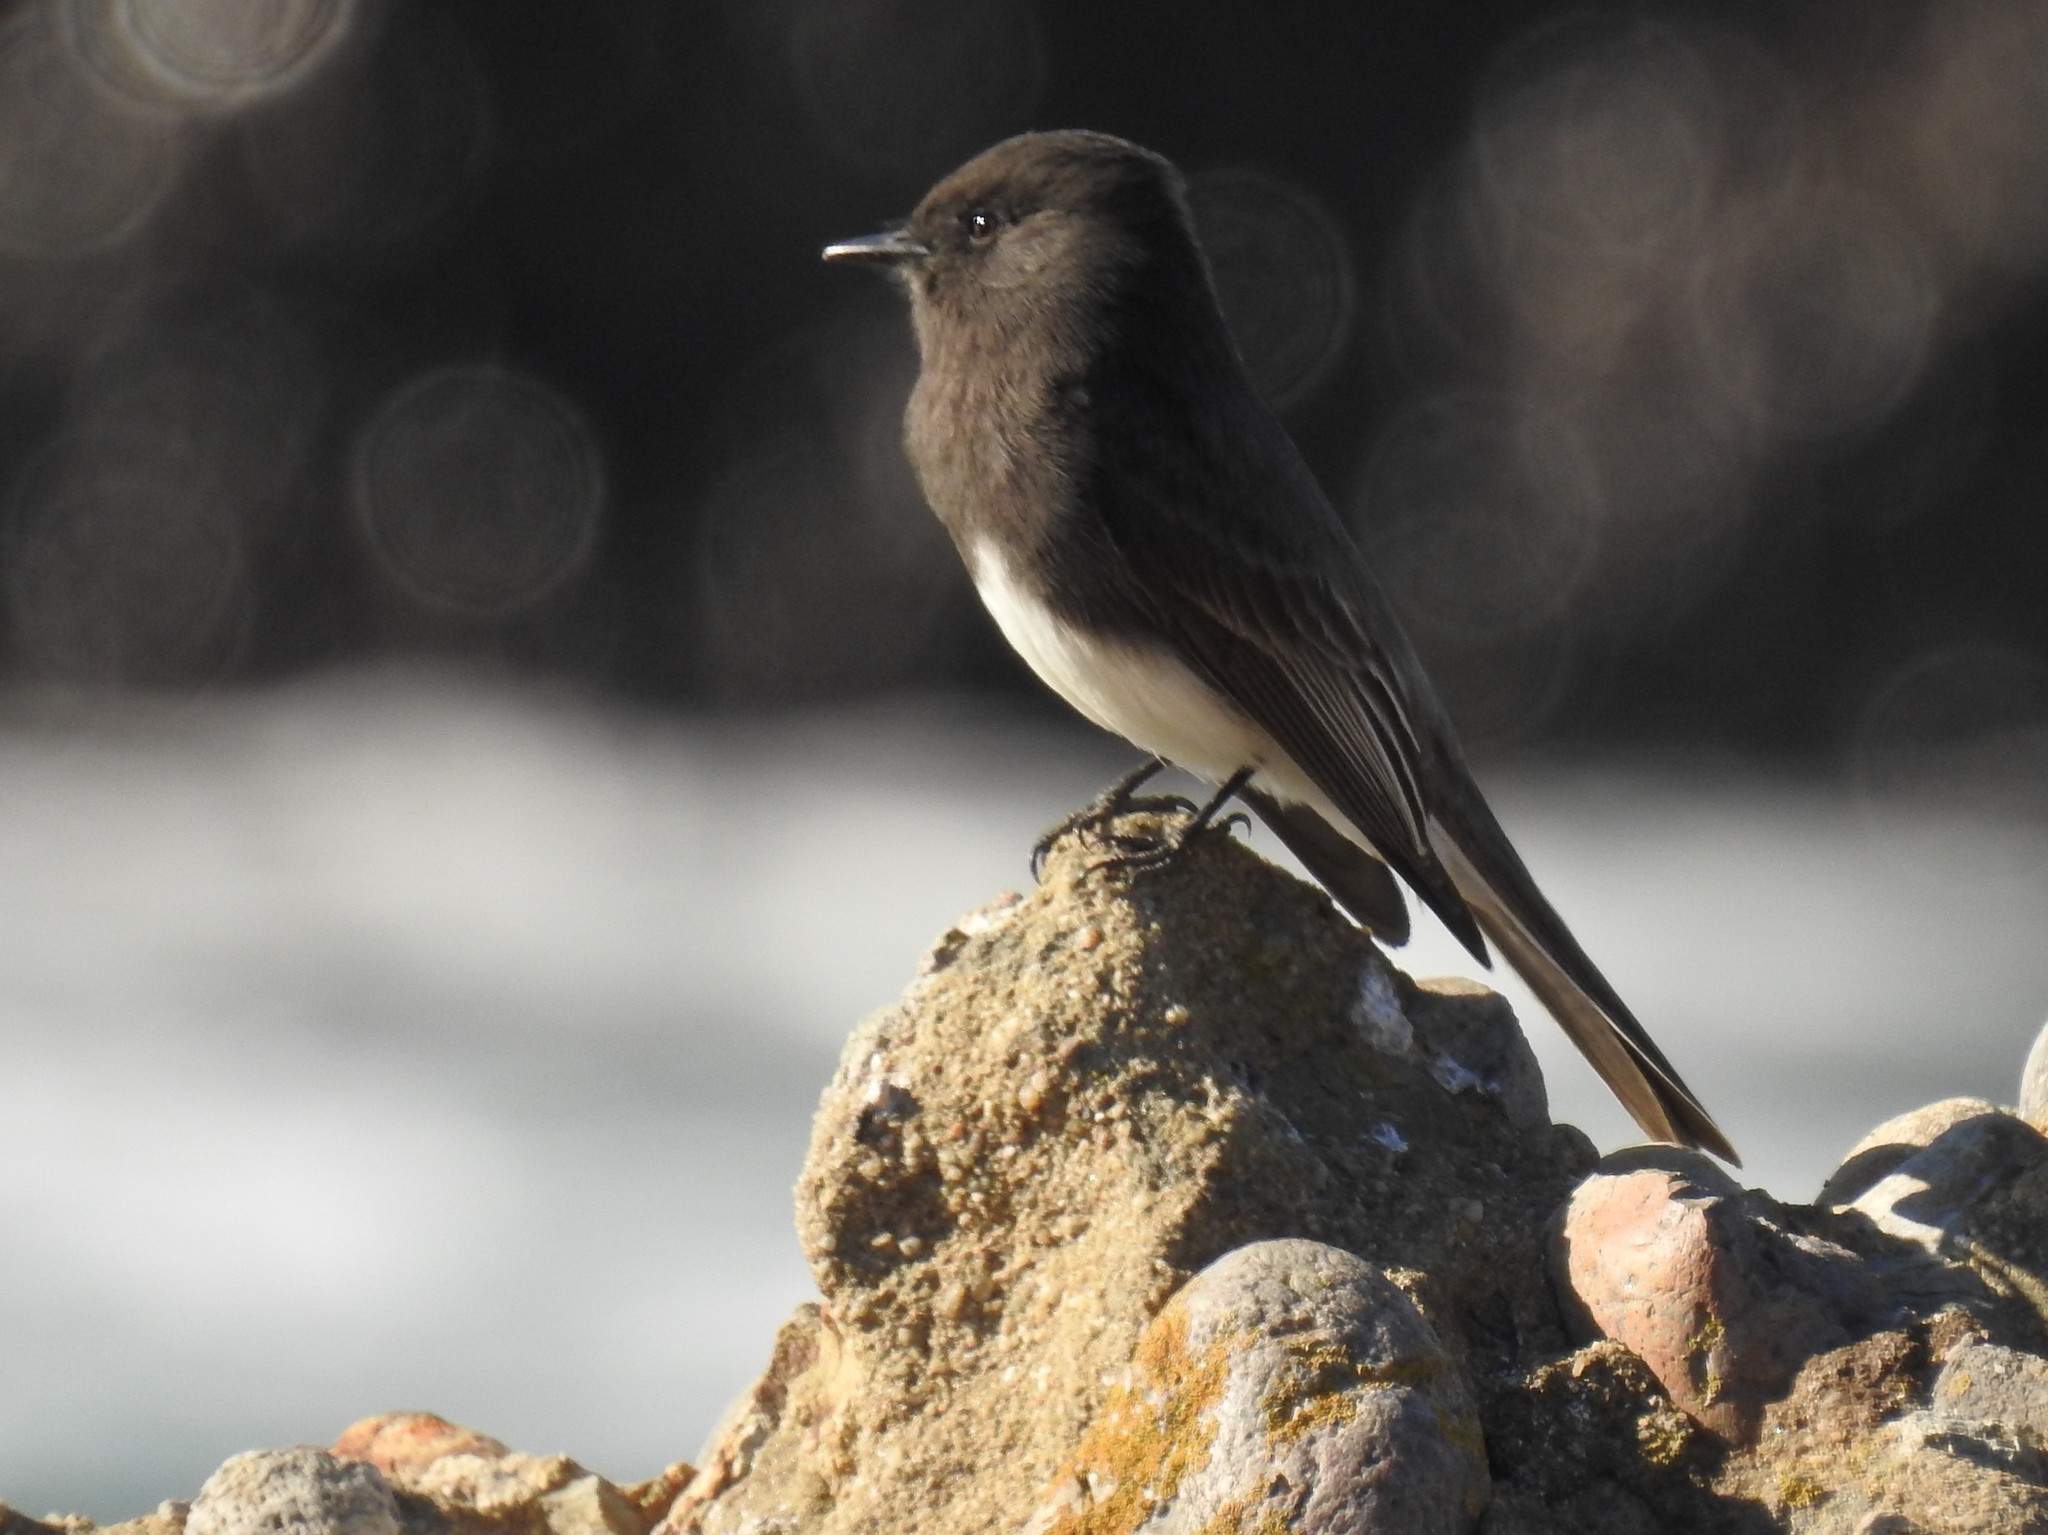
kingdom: Animalia
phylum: Chordata
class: Aves
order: Passeriformes
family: Tyrannidae
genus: Sayornis
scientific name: Sayornis nigricans
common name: Black phoebe
